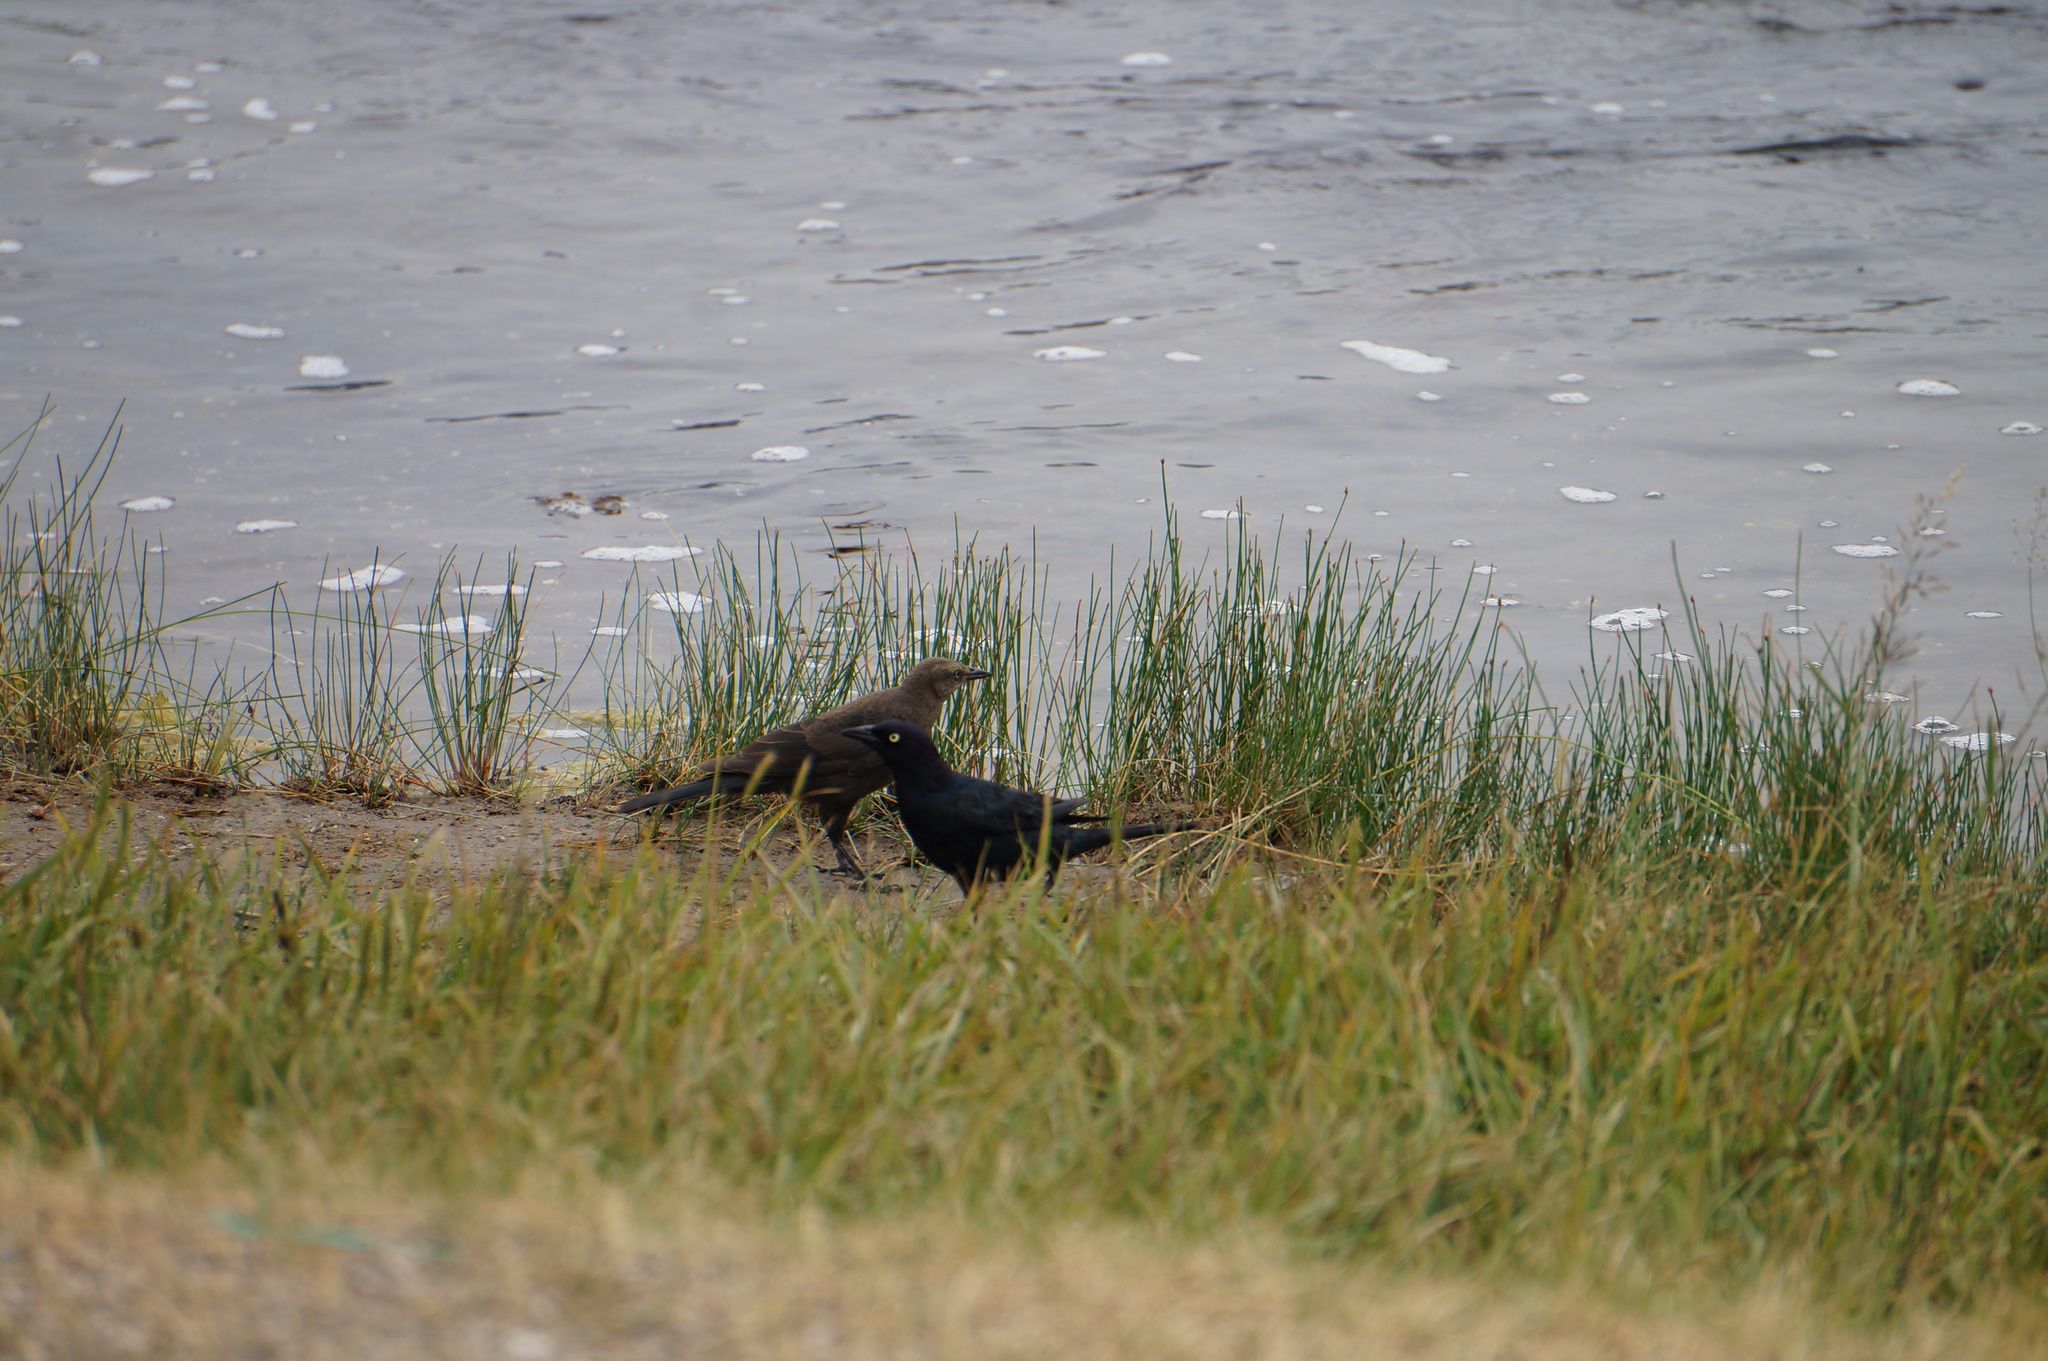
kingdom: Animalia
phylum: Chordata
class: Aves
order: Passeriformes
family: Icteridae
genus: Euphagus
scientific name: Euphagus cyanocephalus
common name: Brewer's blackbird
